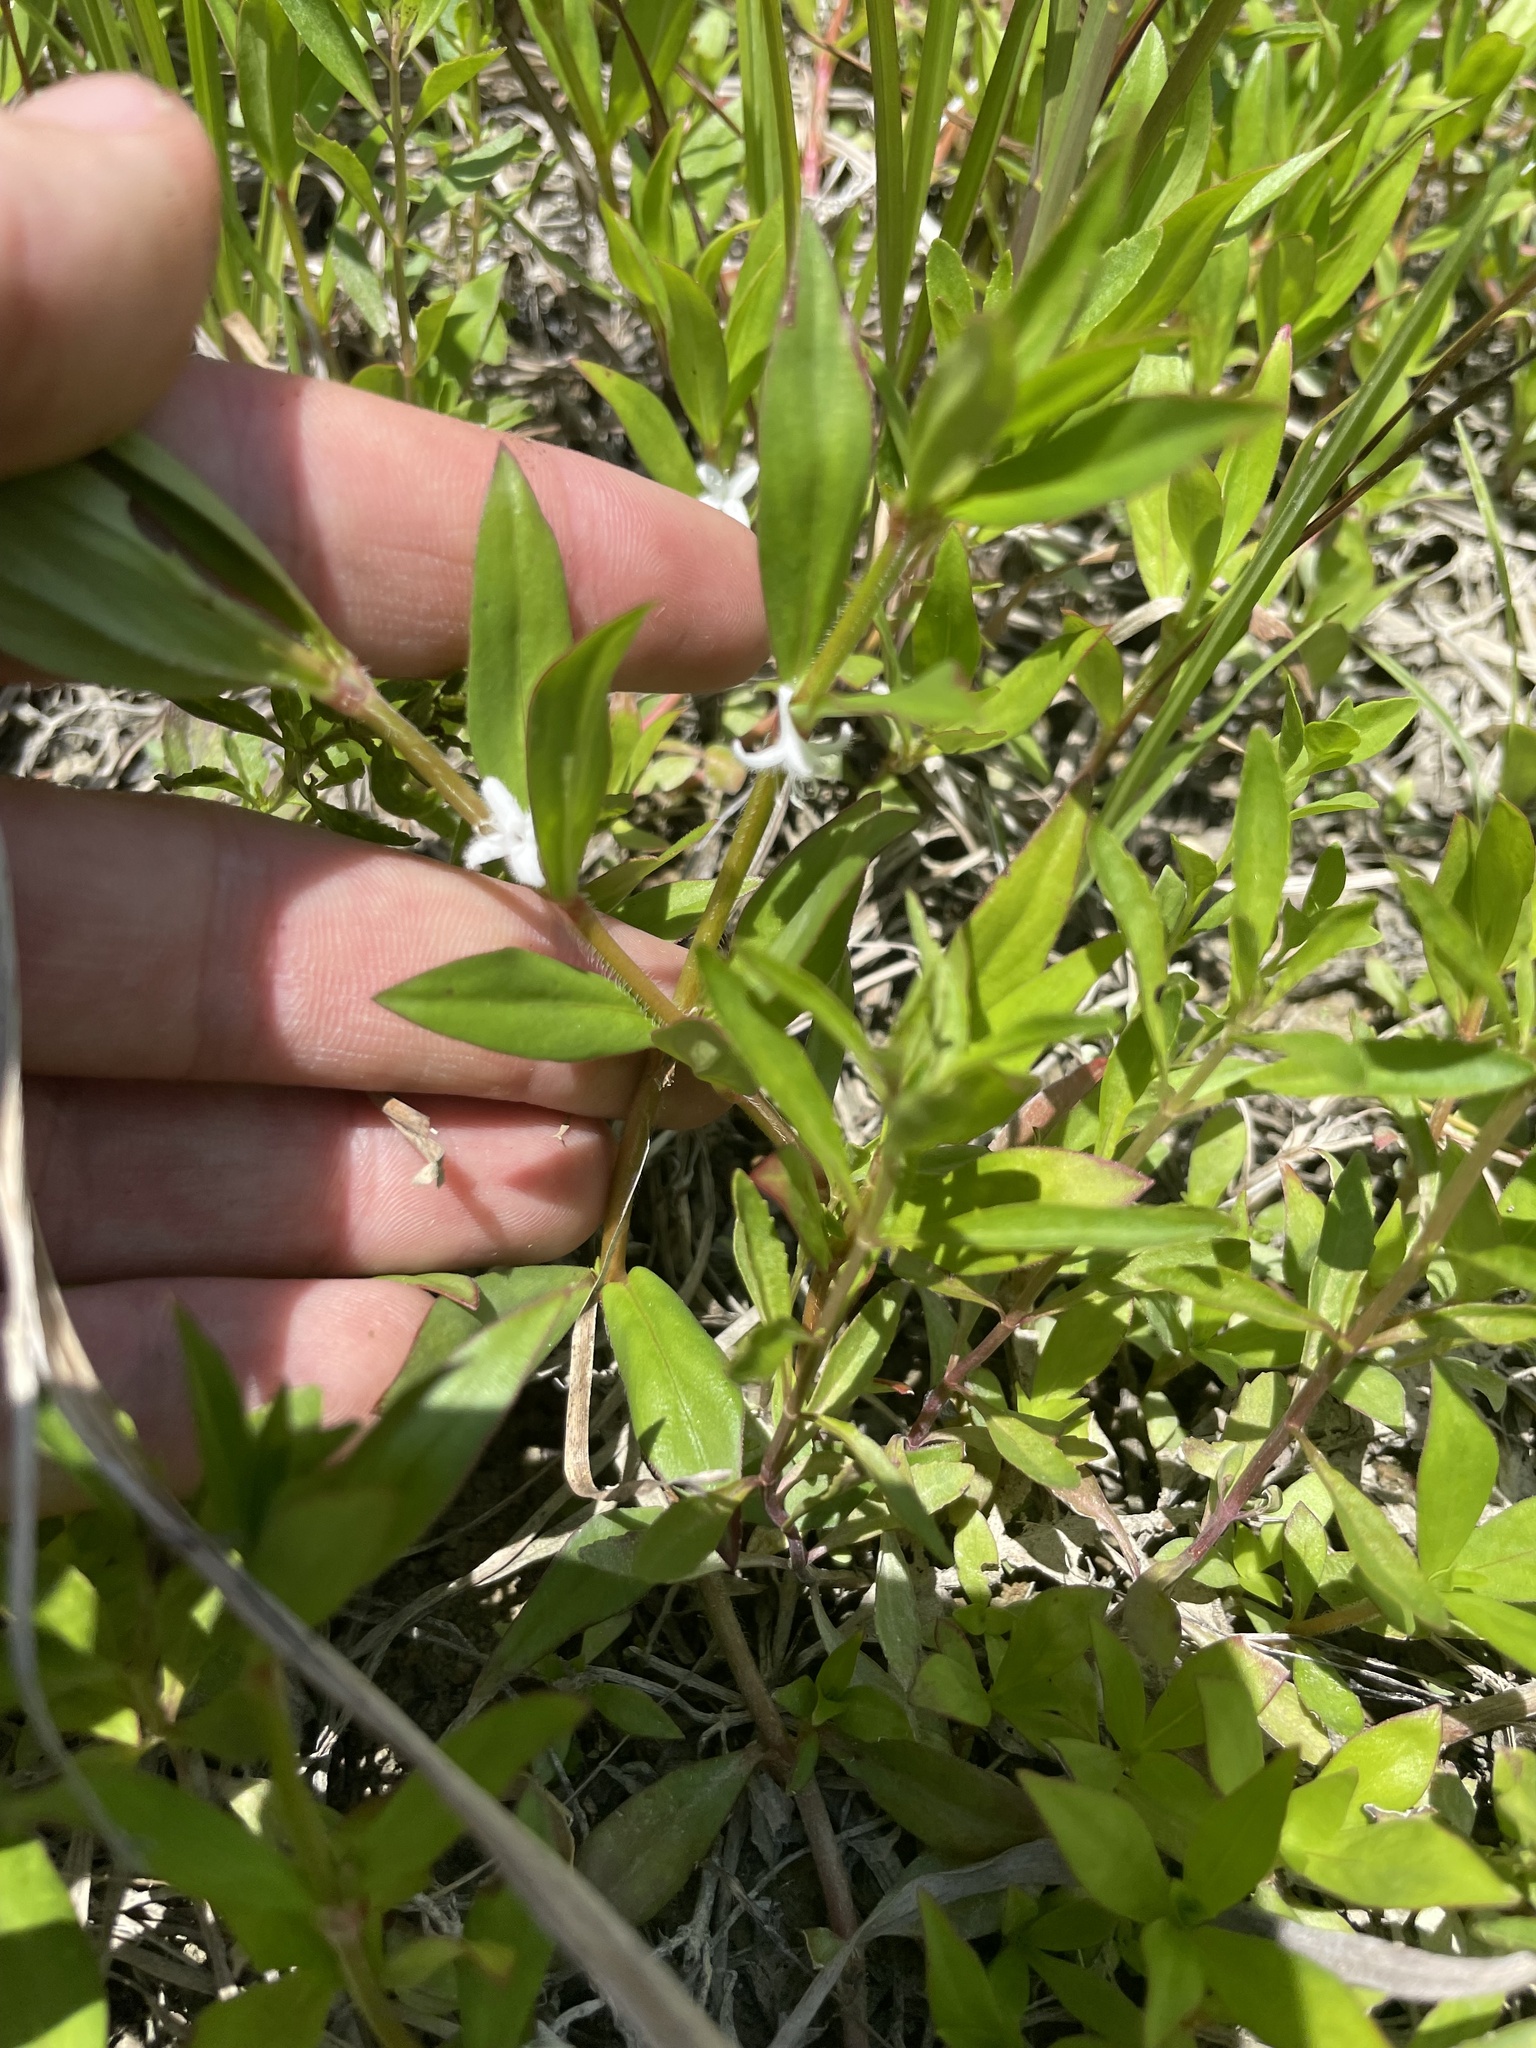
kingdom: Plantae
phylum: Tracheophyta
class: Magnoliopsida
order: Gentianales
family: Rubiaceae
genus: Diodia
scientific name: Diodia virginiana
